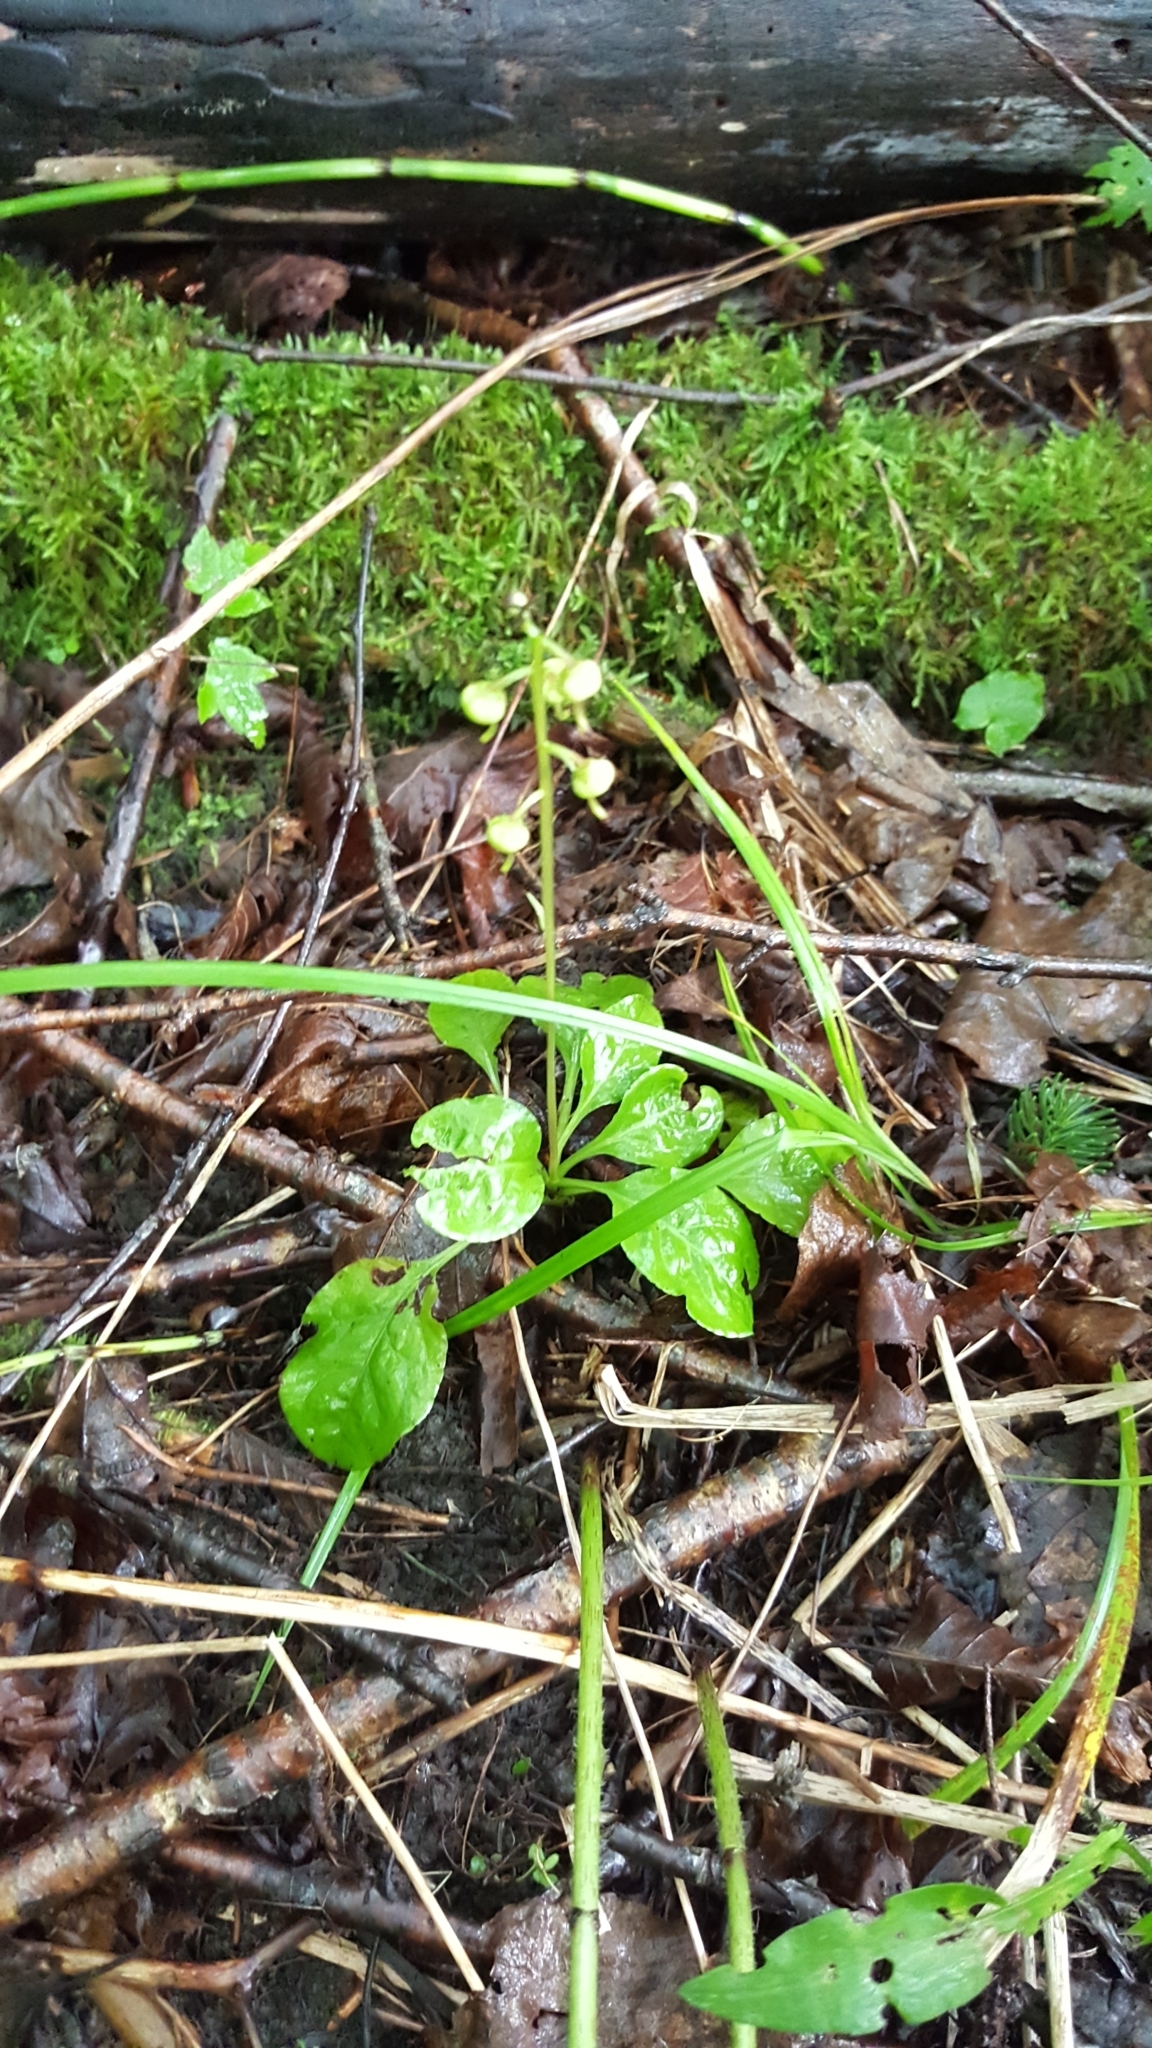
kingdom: Plantae
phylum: Tracheophyta
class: Magnoliopsida
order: Ericales
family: Ericaceae
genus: Pyrola
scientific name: Pyrola elliptica
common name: Shinleaf
